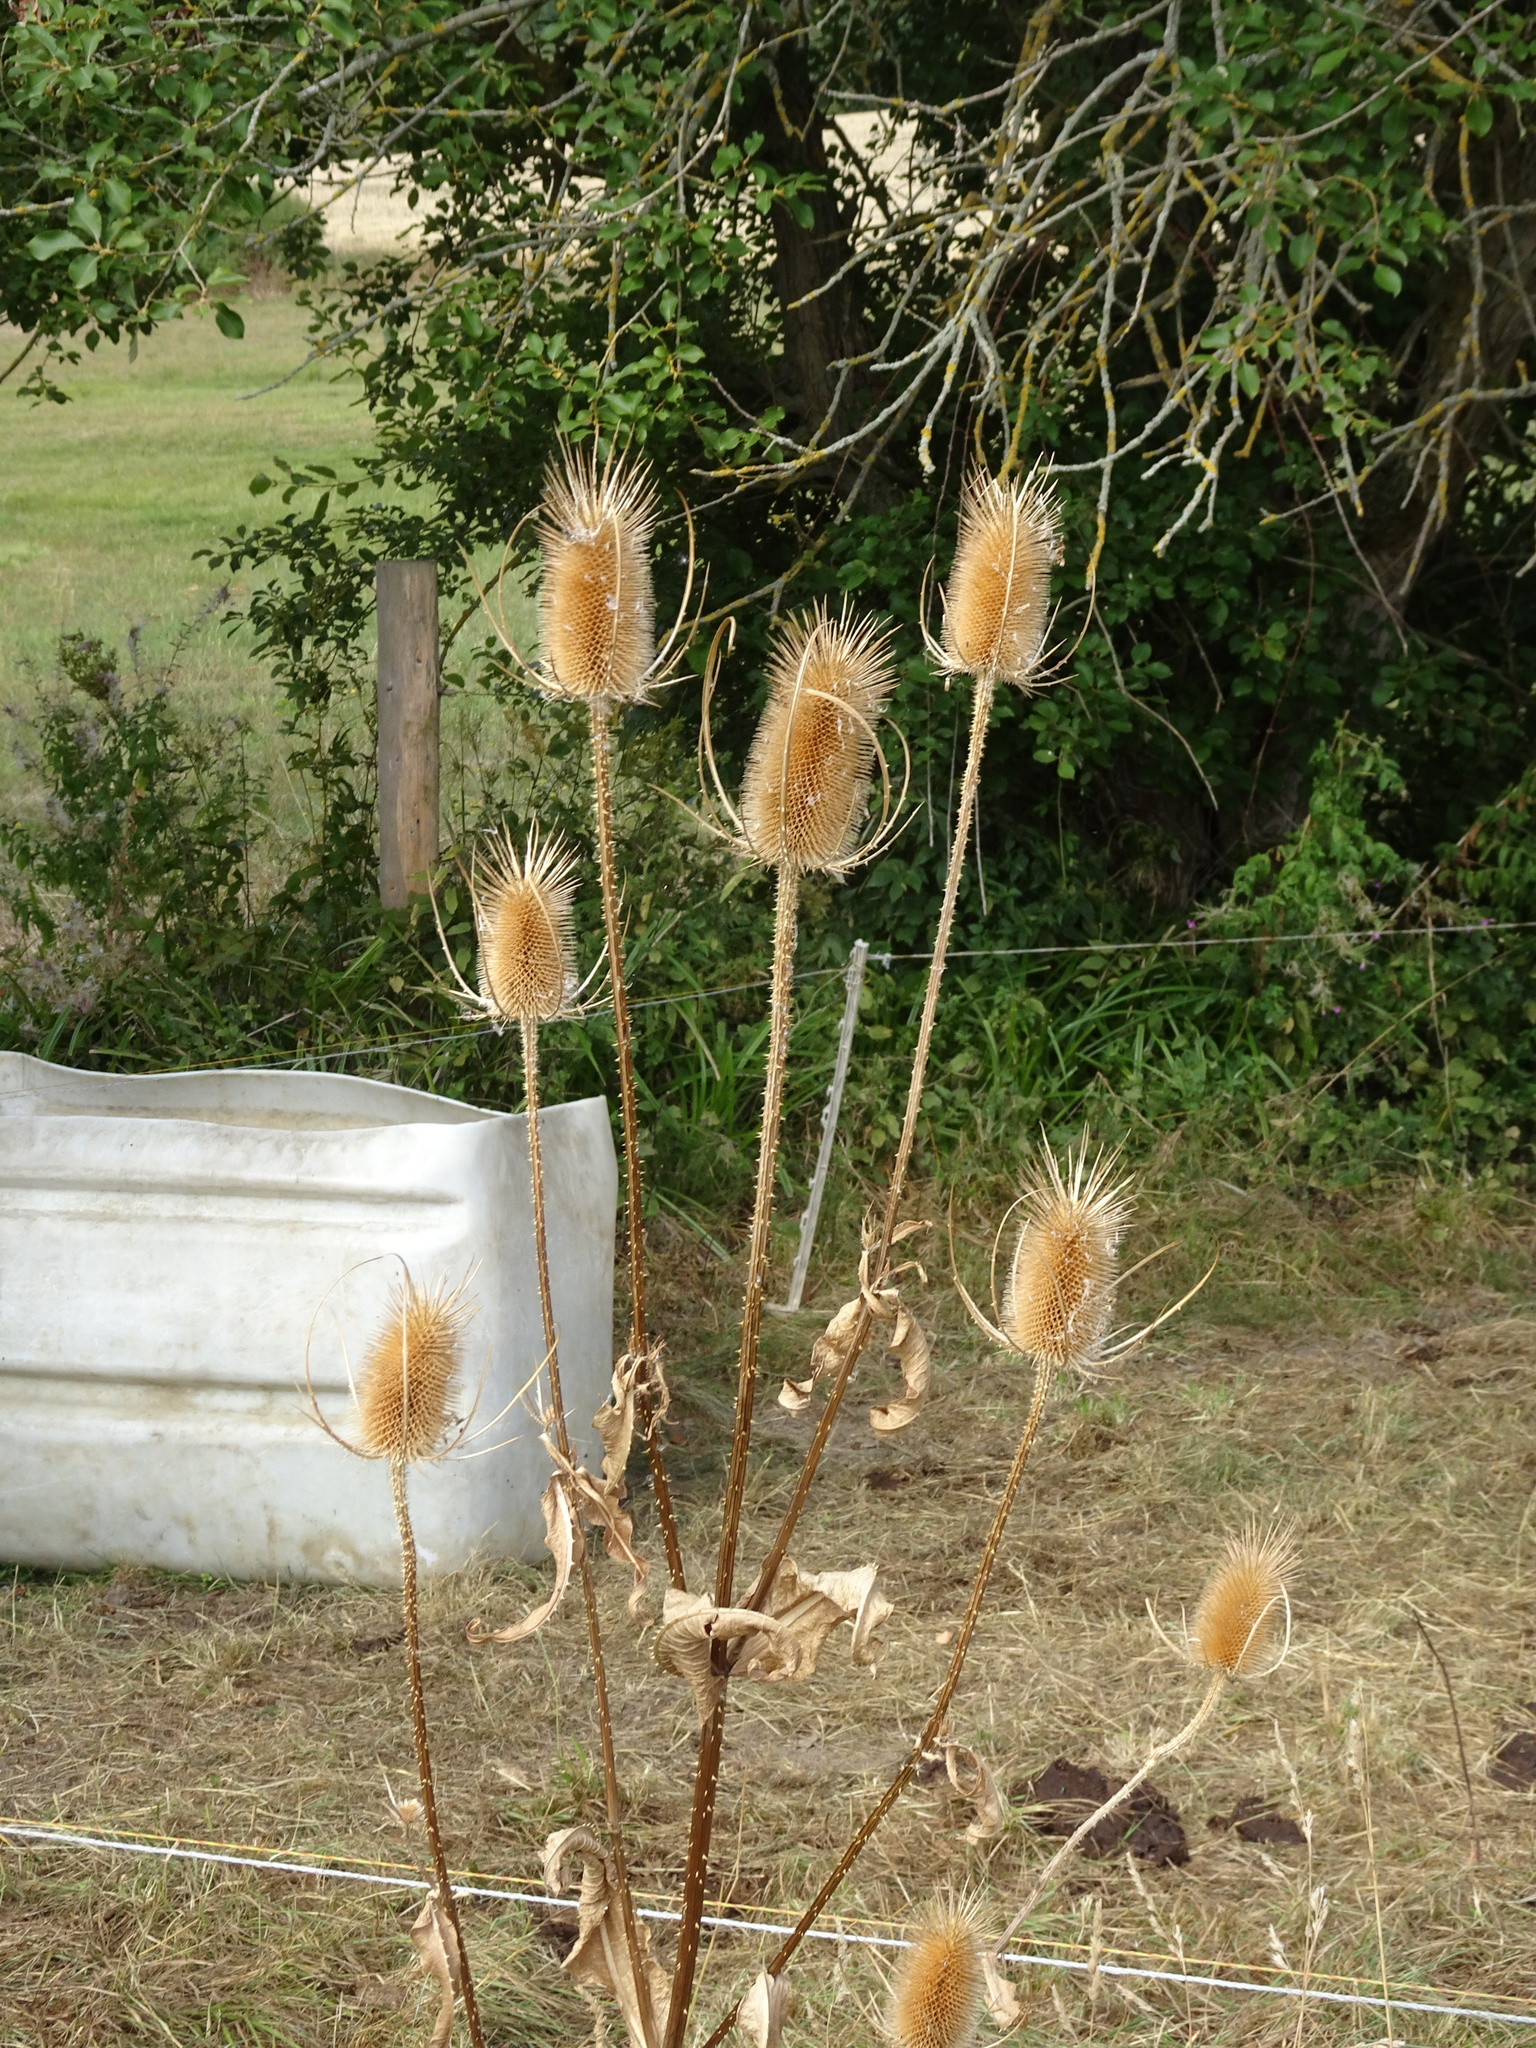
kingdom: Plantae
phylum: Tracheophyta
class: Magnoliopsida
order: Dipsacales
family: Caprifoliaceae
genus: Dipsacus
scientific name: Dipsacus fullonum
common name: Teasel
